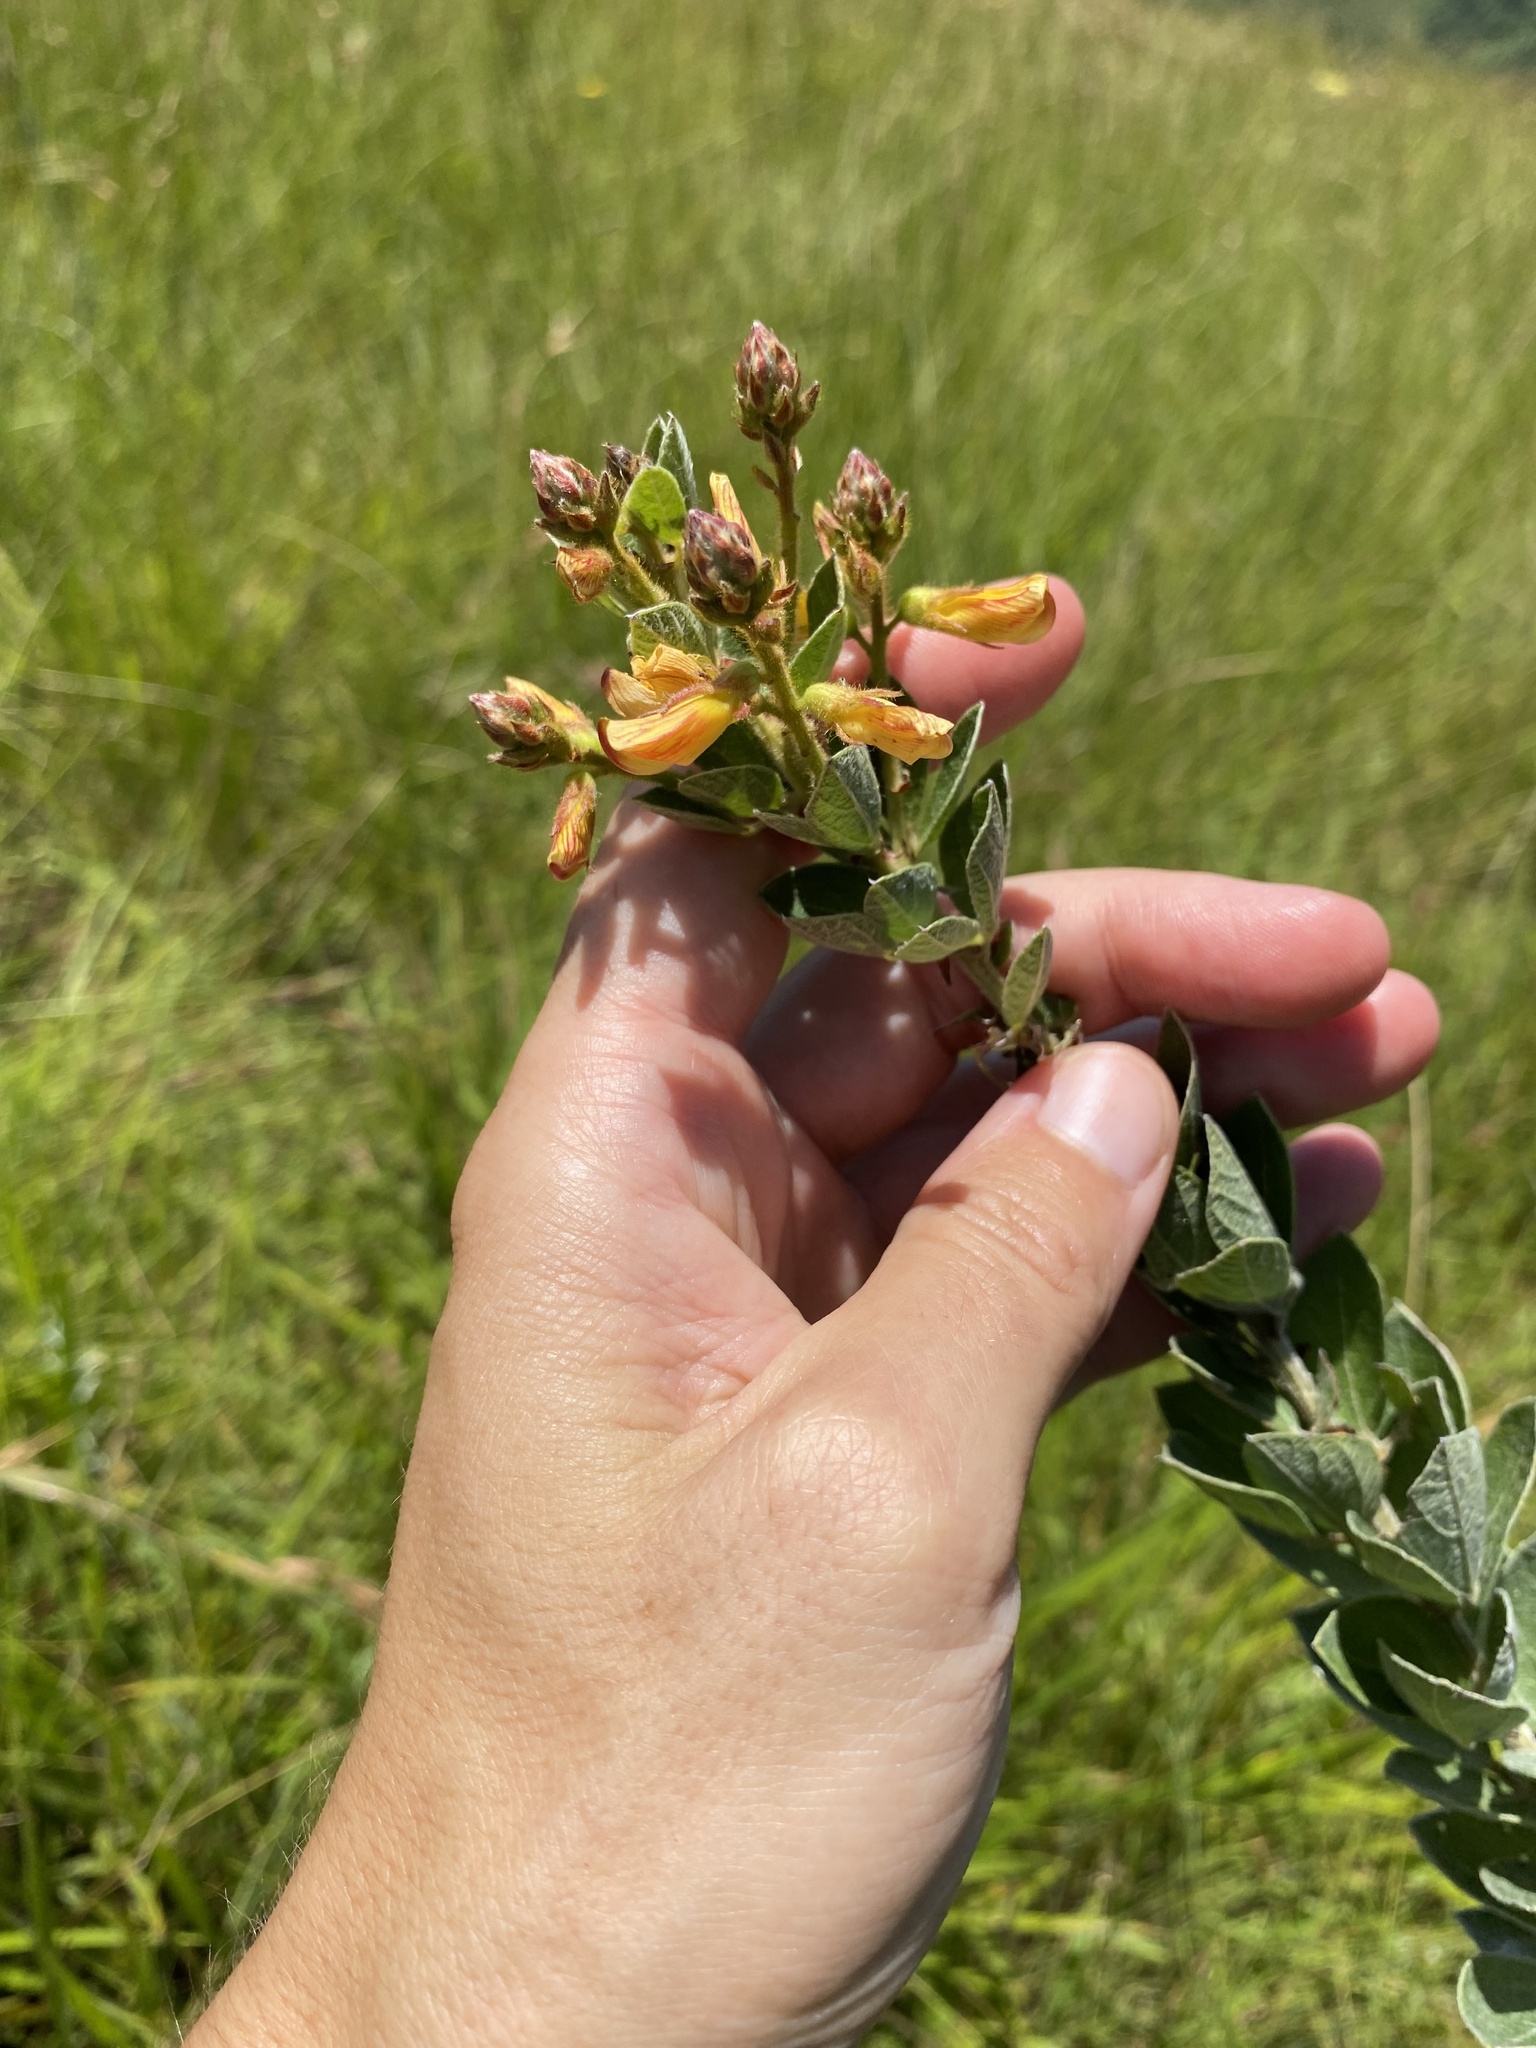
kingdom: Plantae
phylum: Tracheophyta
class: Magnoliopsida
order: Fabales
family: Fabaceae
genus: Rhynchosia
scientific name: Rhynchosia woodii
